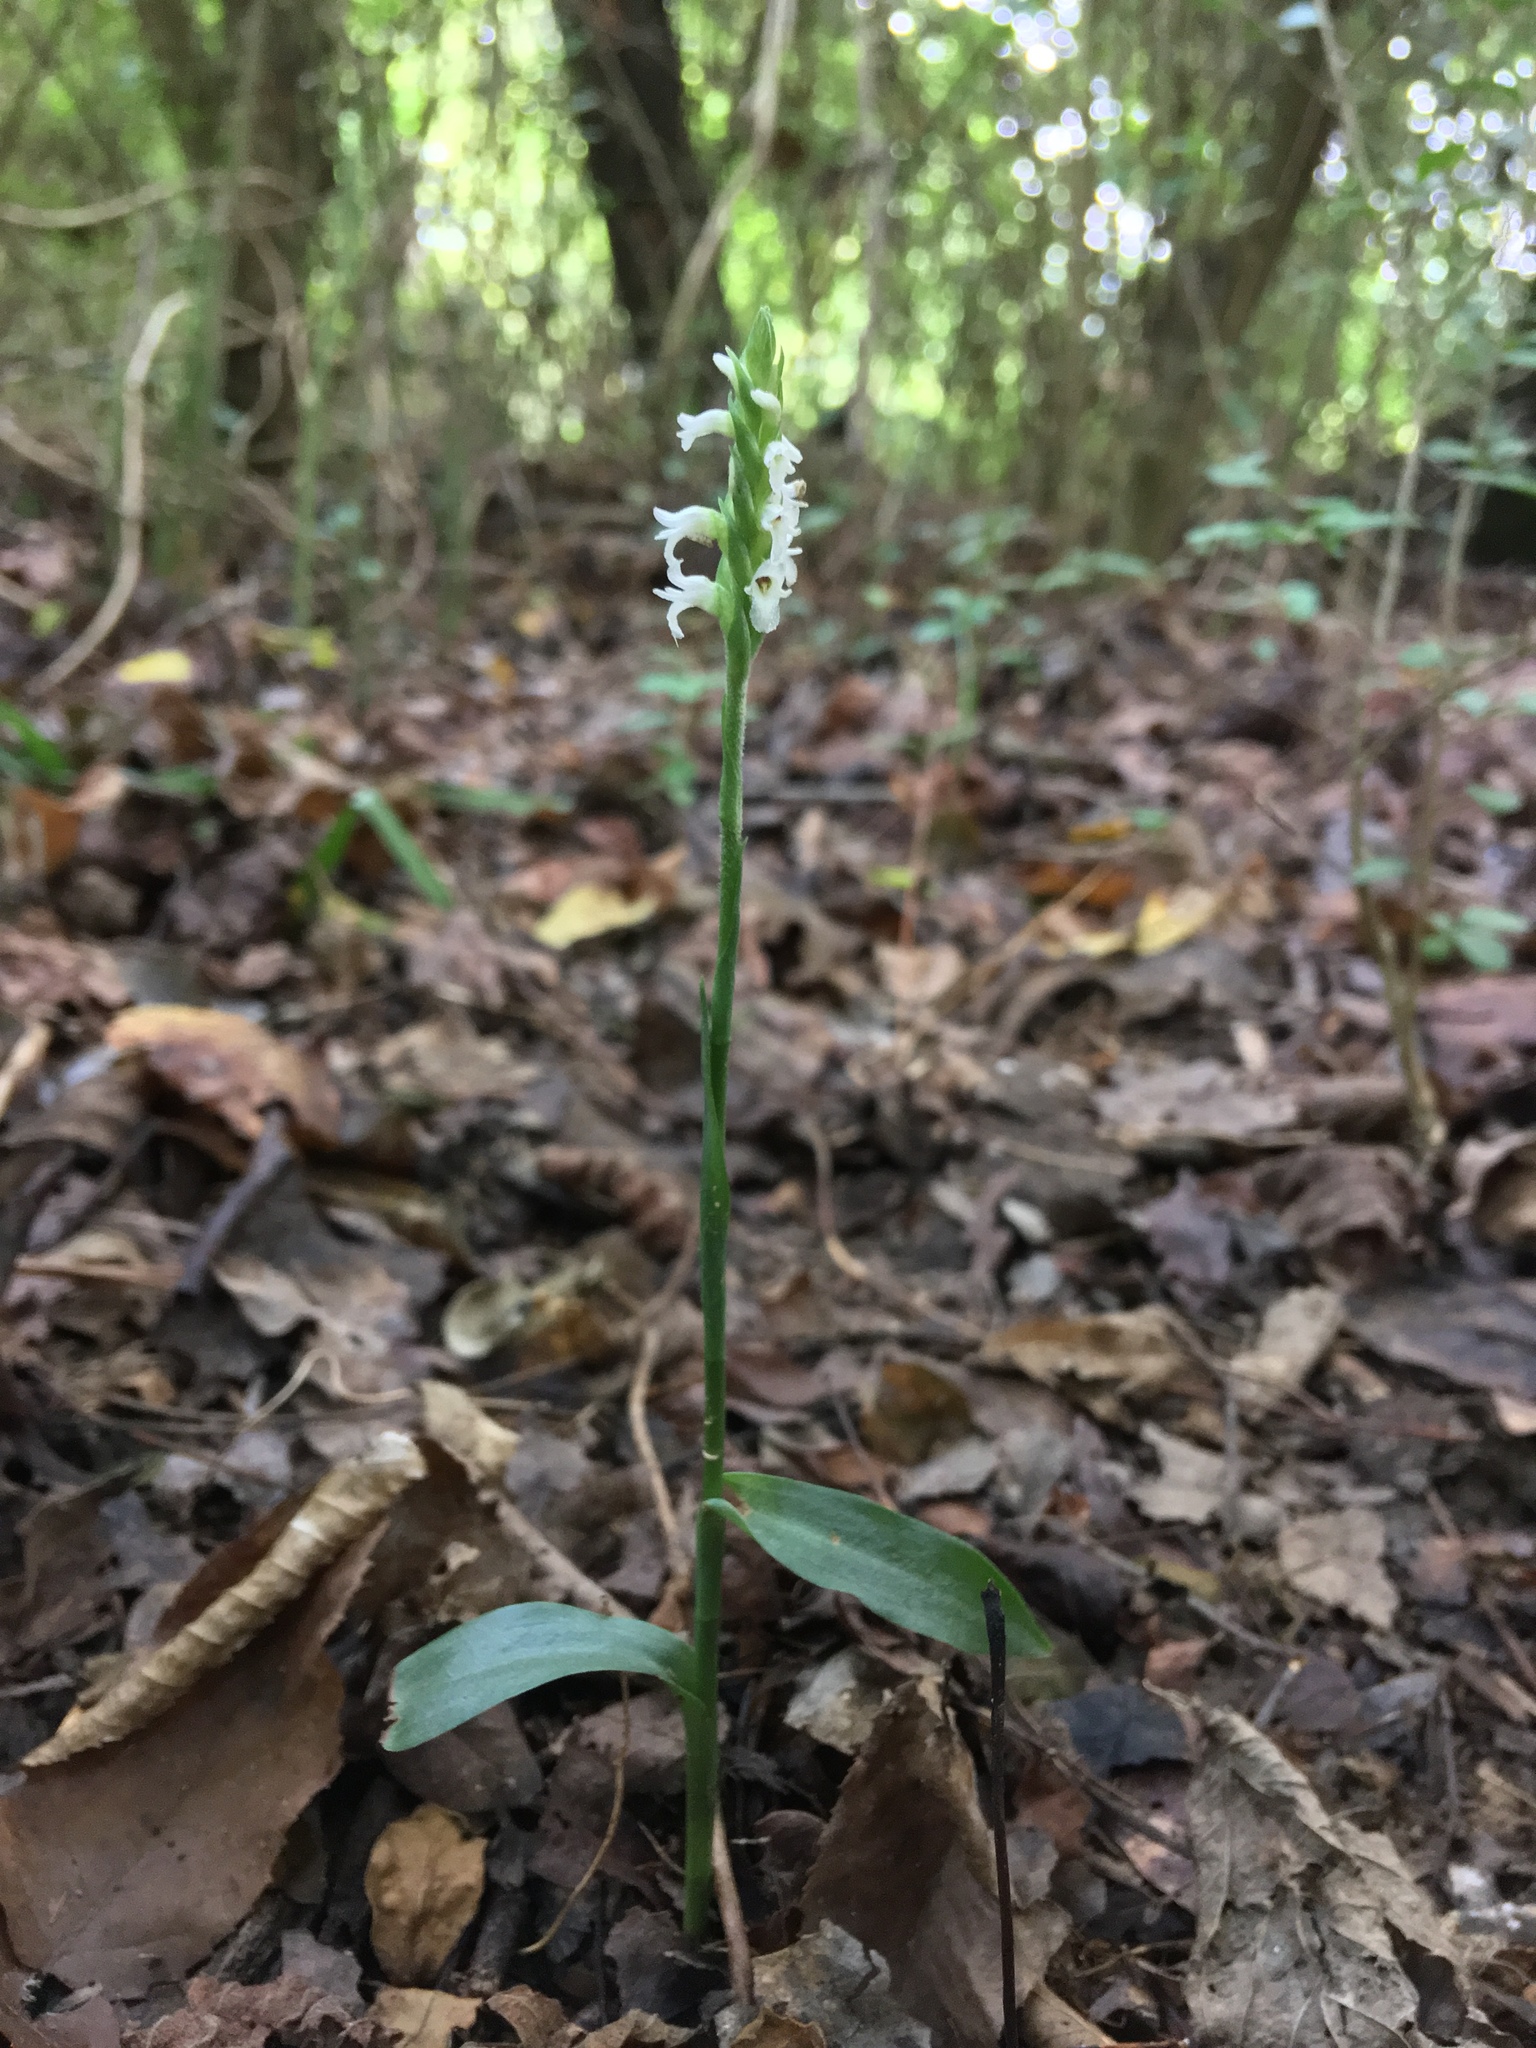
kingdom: Plantae
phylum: Tracheophyta
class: Liliopsida
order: Asparagales
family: Orchidaceae
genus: Spiranthes
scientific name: Spiranthes ovalis
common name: October ladies'-tresses
